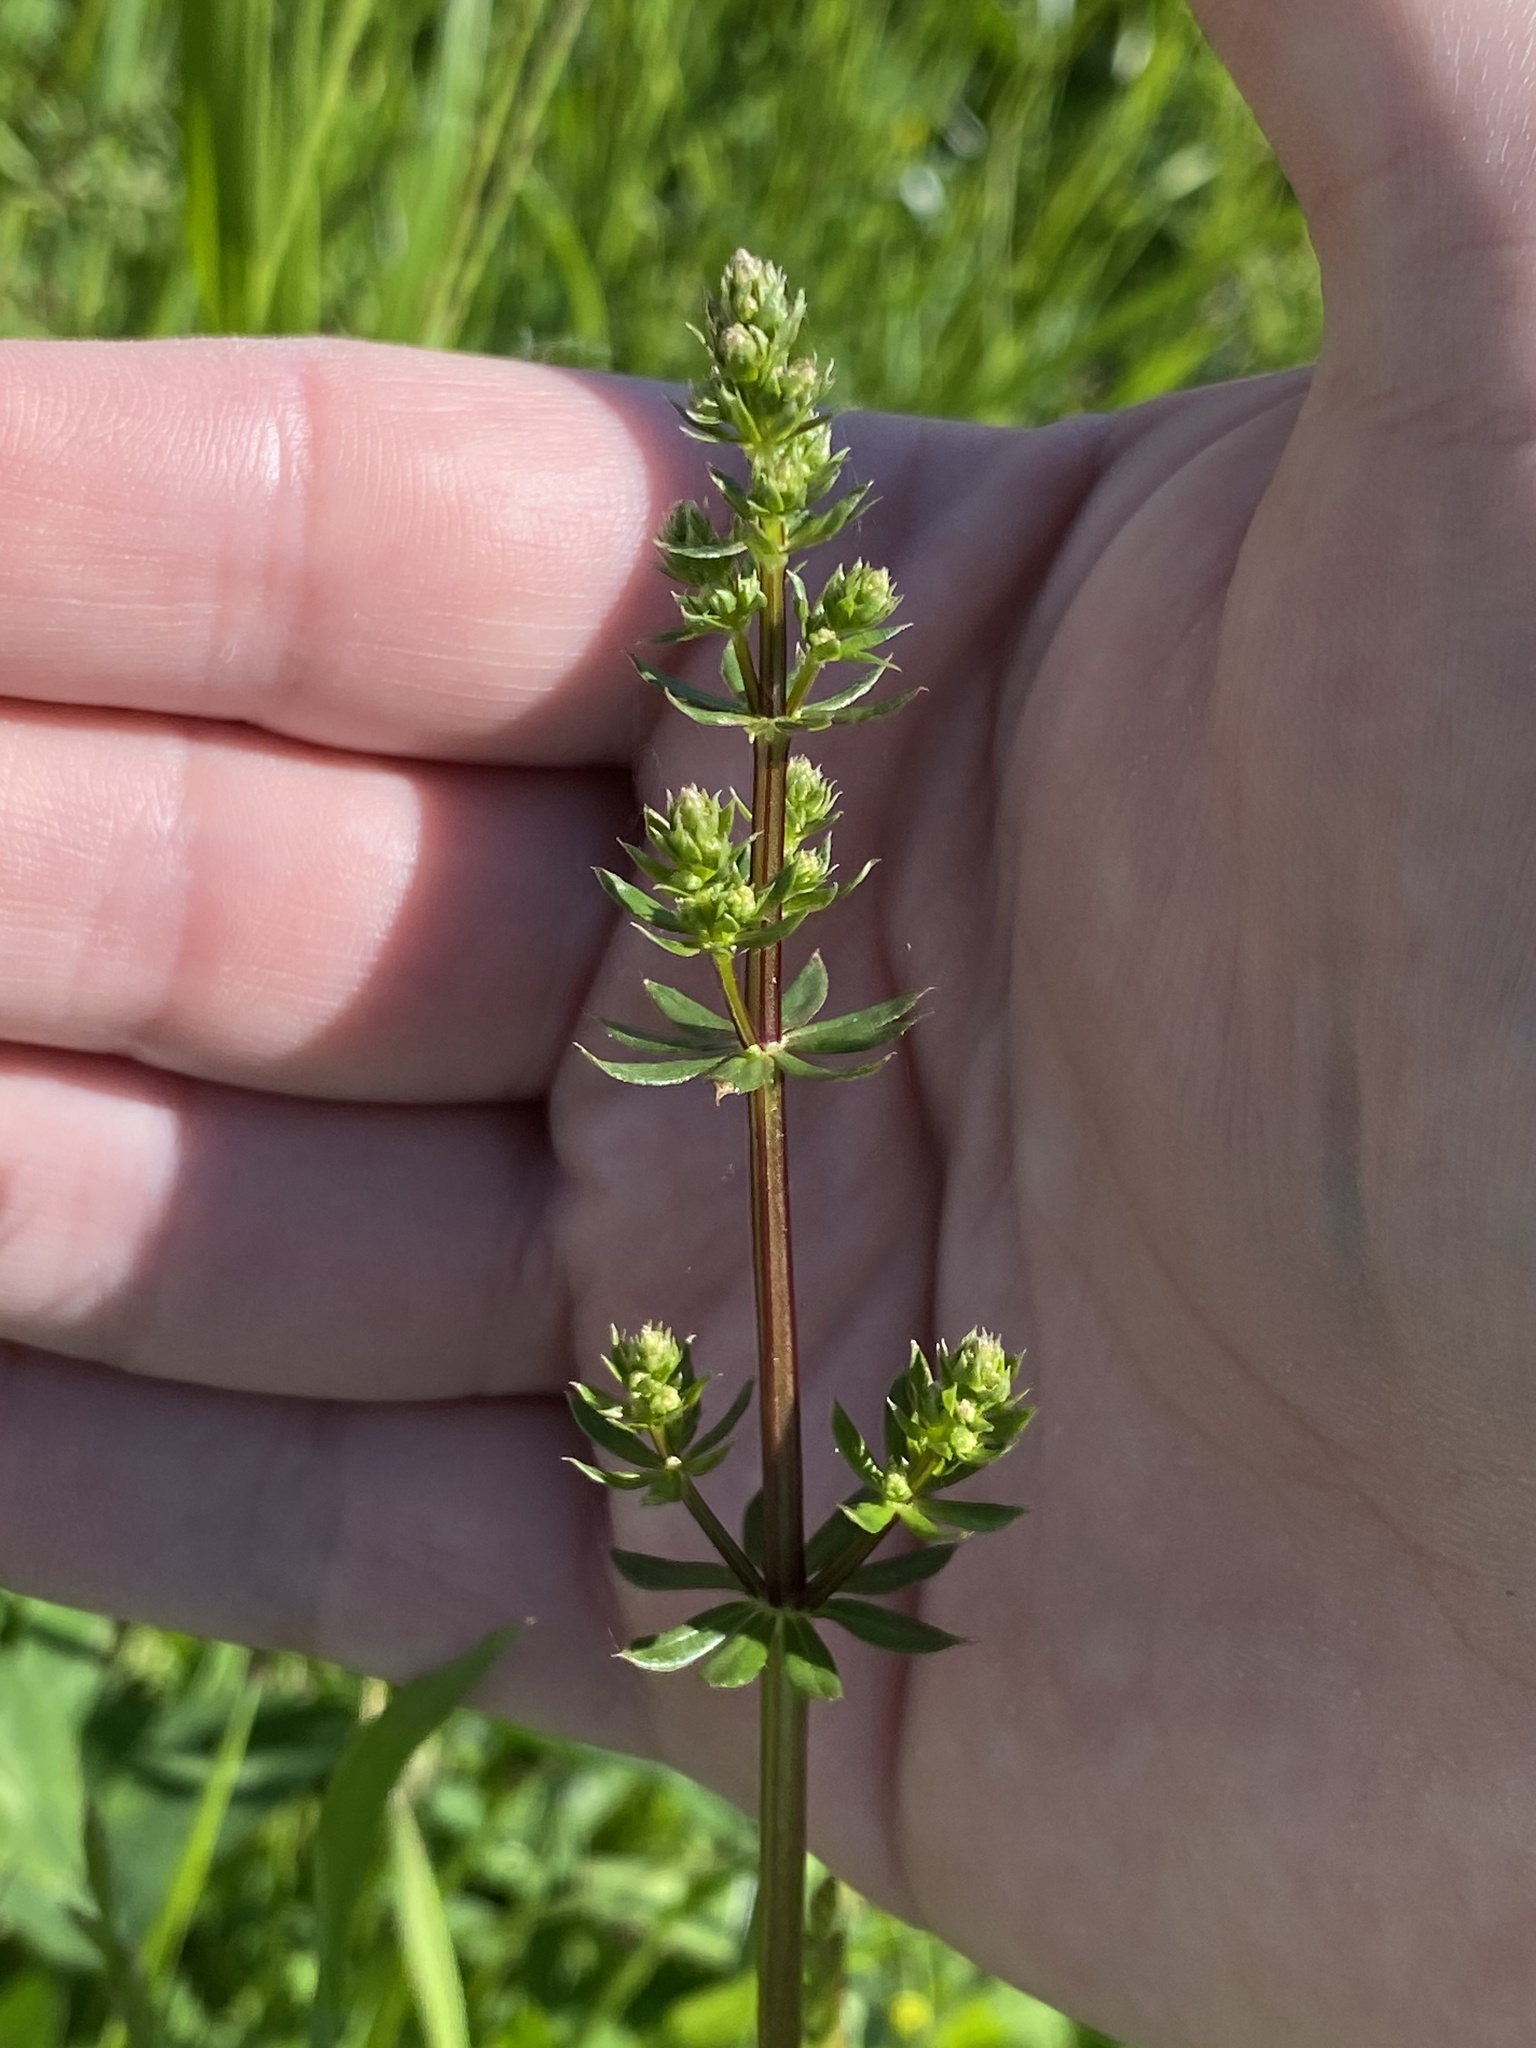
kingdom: Plantae
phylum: Tracheophyta
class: Magnoliopsida
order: Gentianales
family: Rubiaceae
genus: Galium
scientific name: Galium mollugo
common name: Hedge bedstraw
